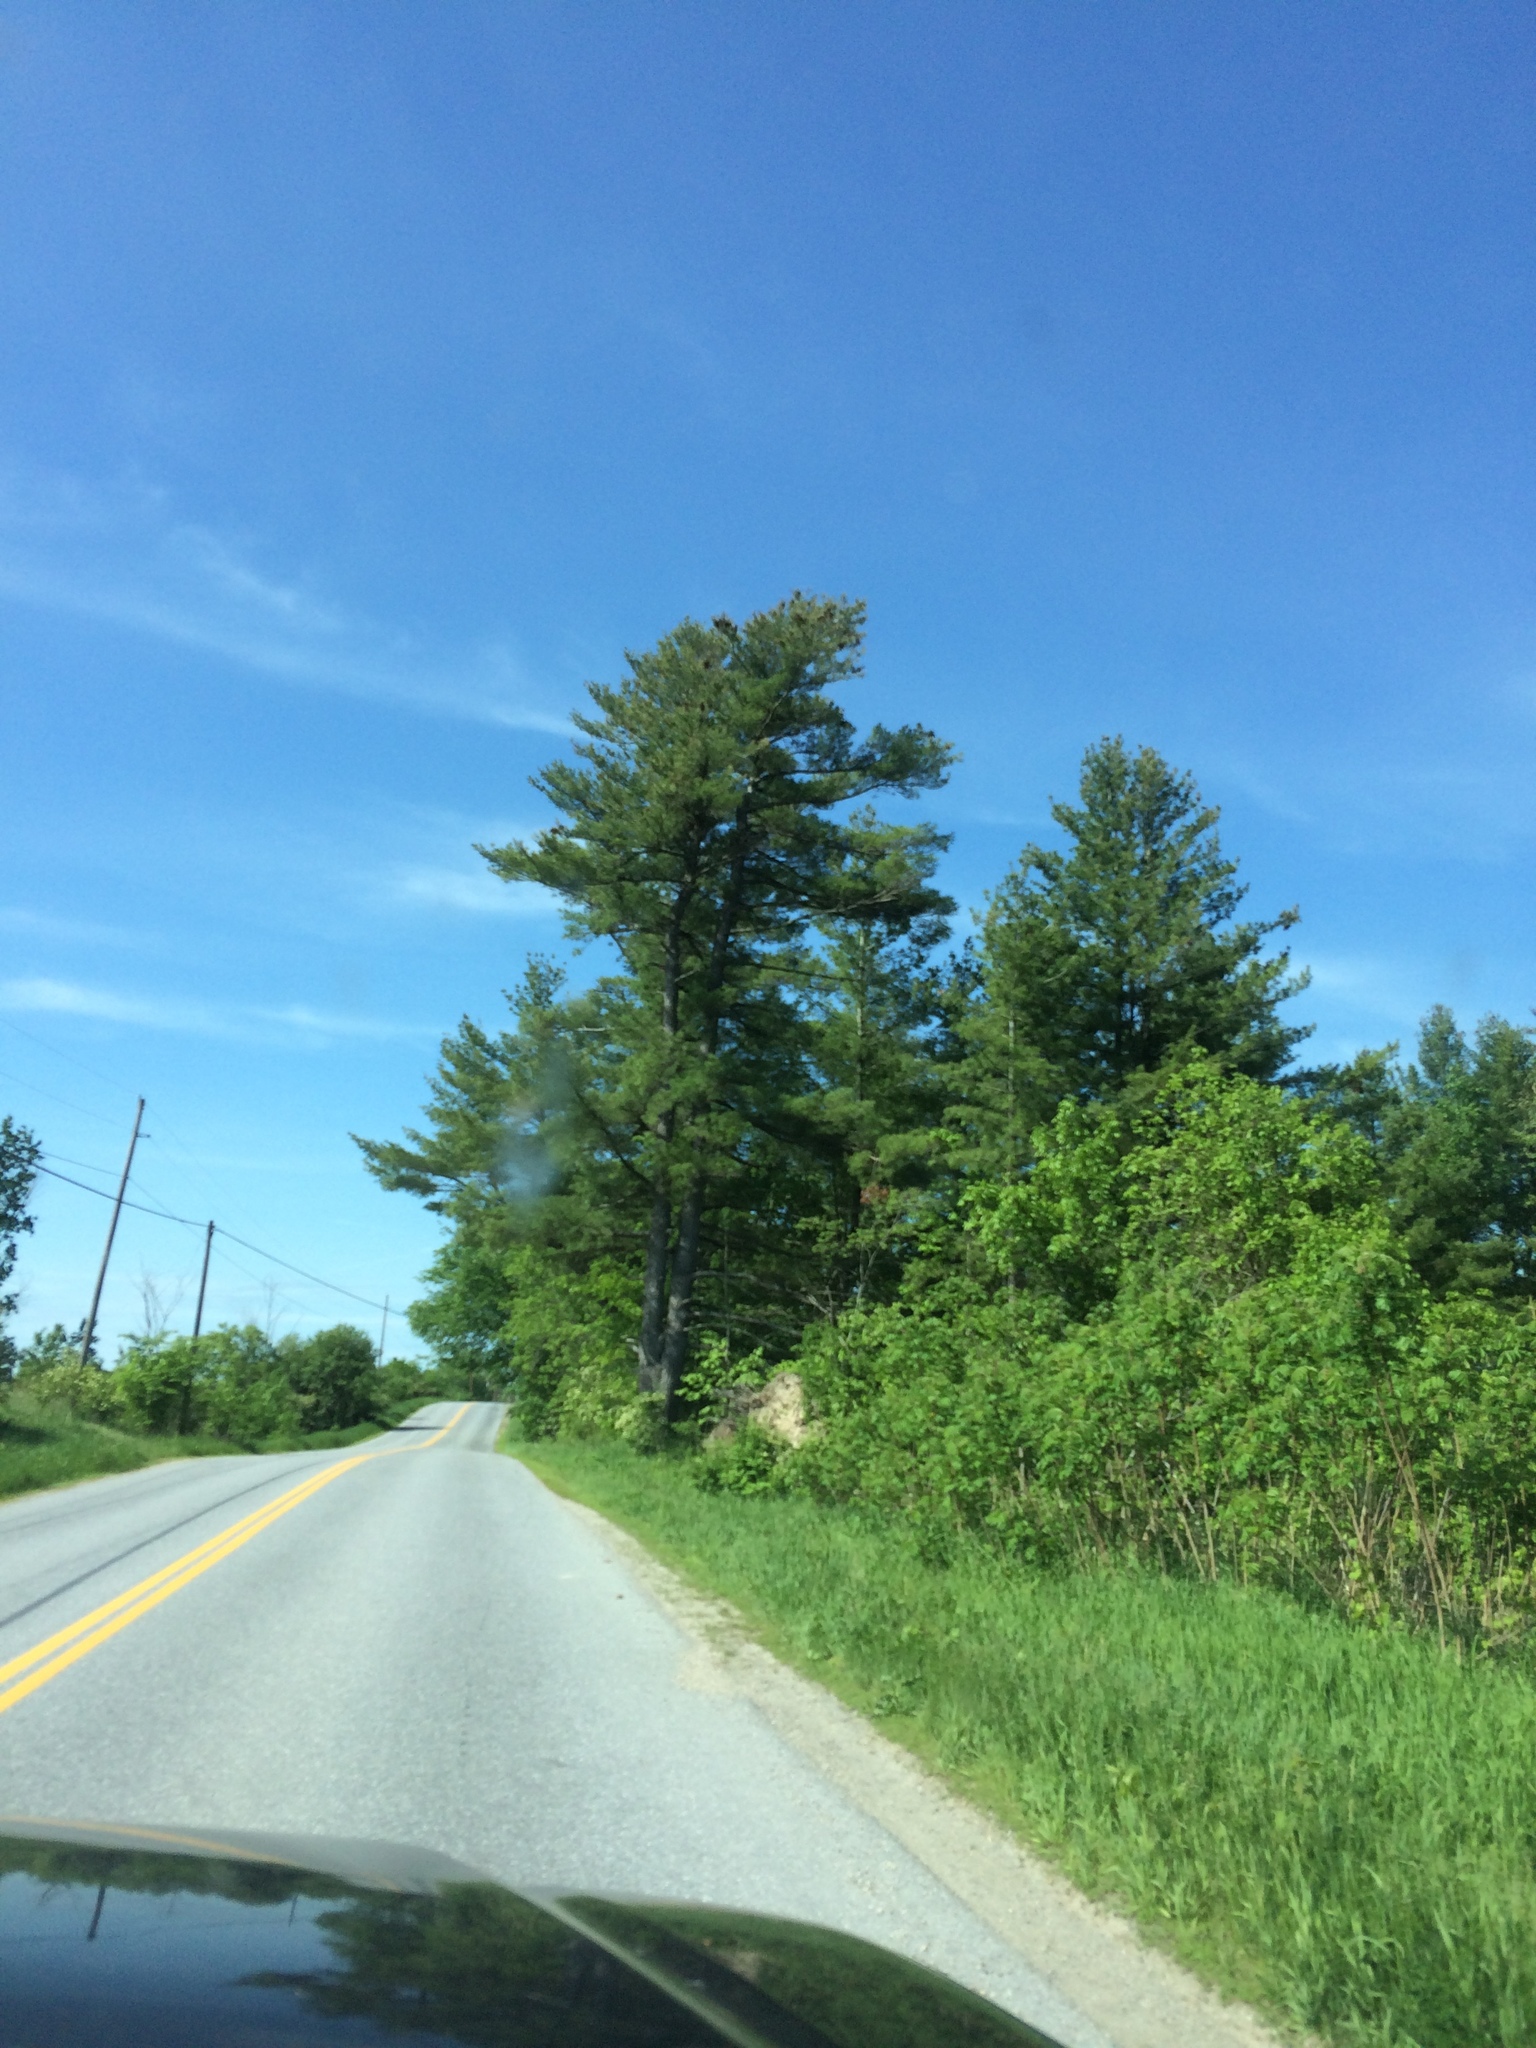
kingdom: Plantae
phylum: Tracheophyta
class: Pinopsida
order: Pinales
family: Pinaceae
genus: Pinus
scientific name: Pinus strobus
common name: Weymouth pine
